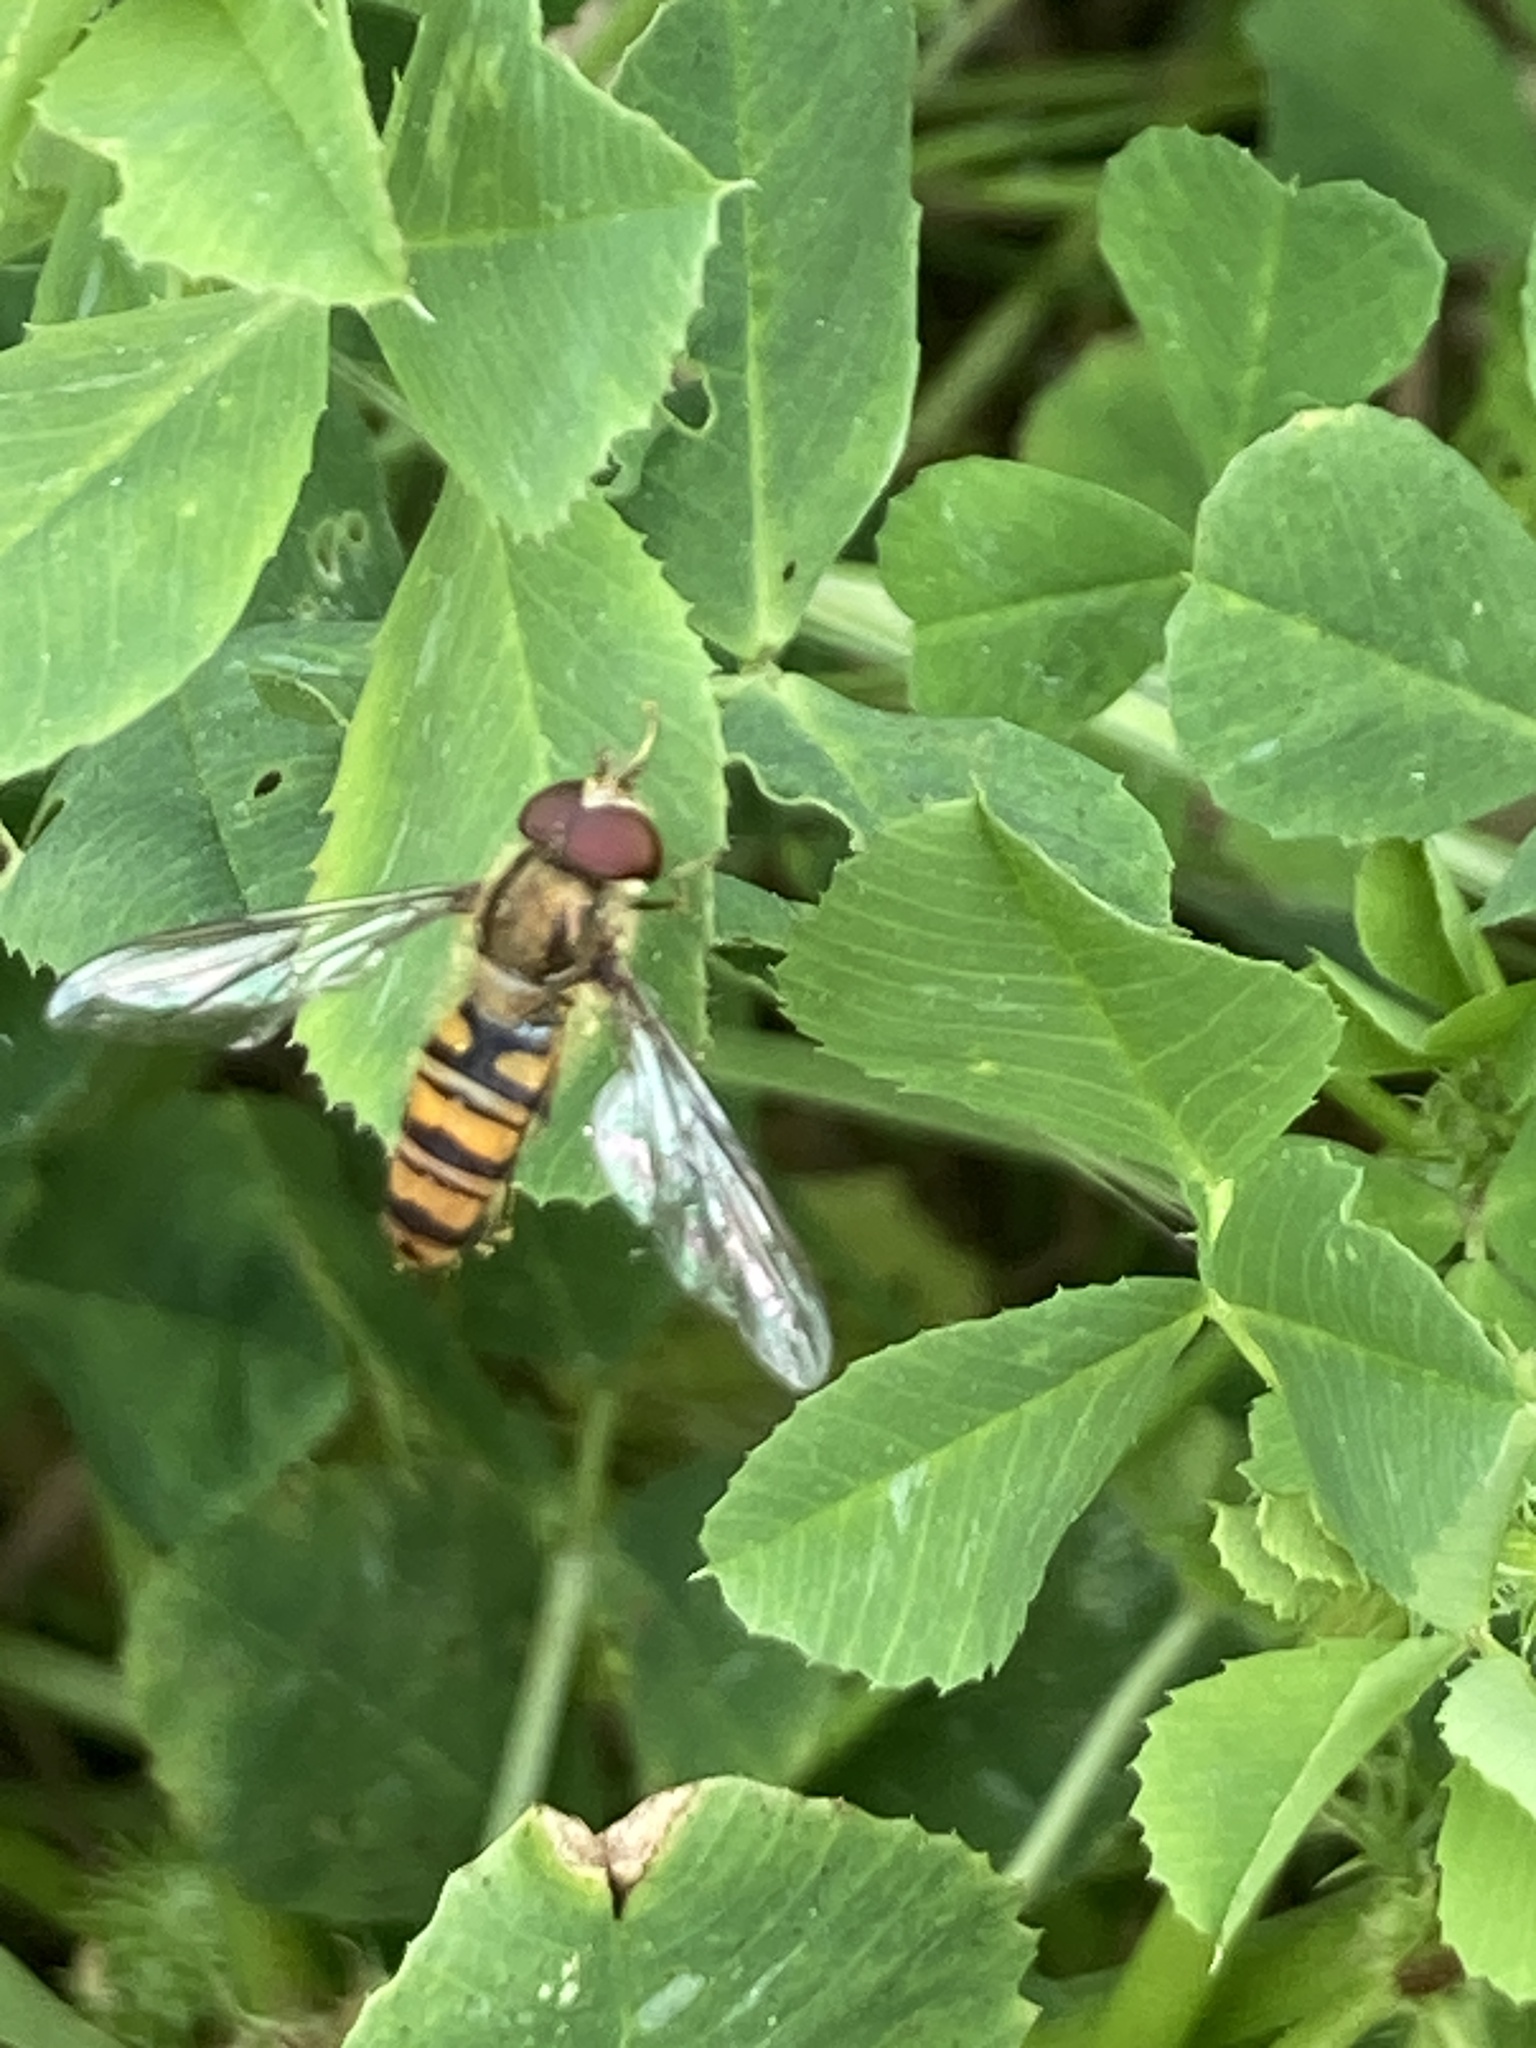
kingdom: Animalia
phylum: Arthropoda
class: Insecta
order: Diptera
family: Syrphidae
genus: Episyrphus
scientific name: Episyrphus balteatus
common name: Marmalade hoverfly
